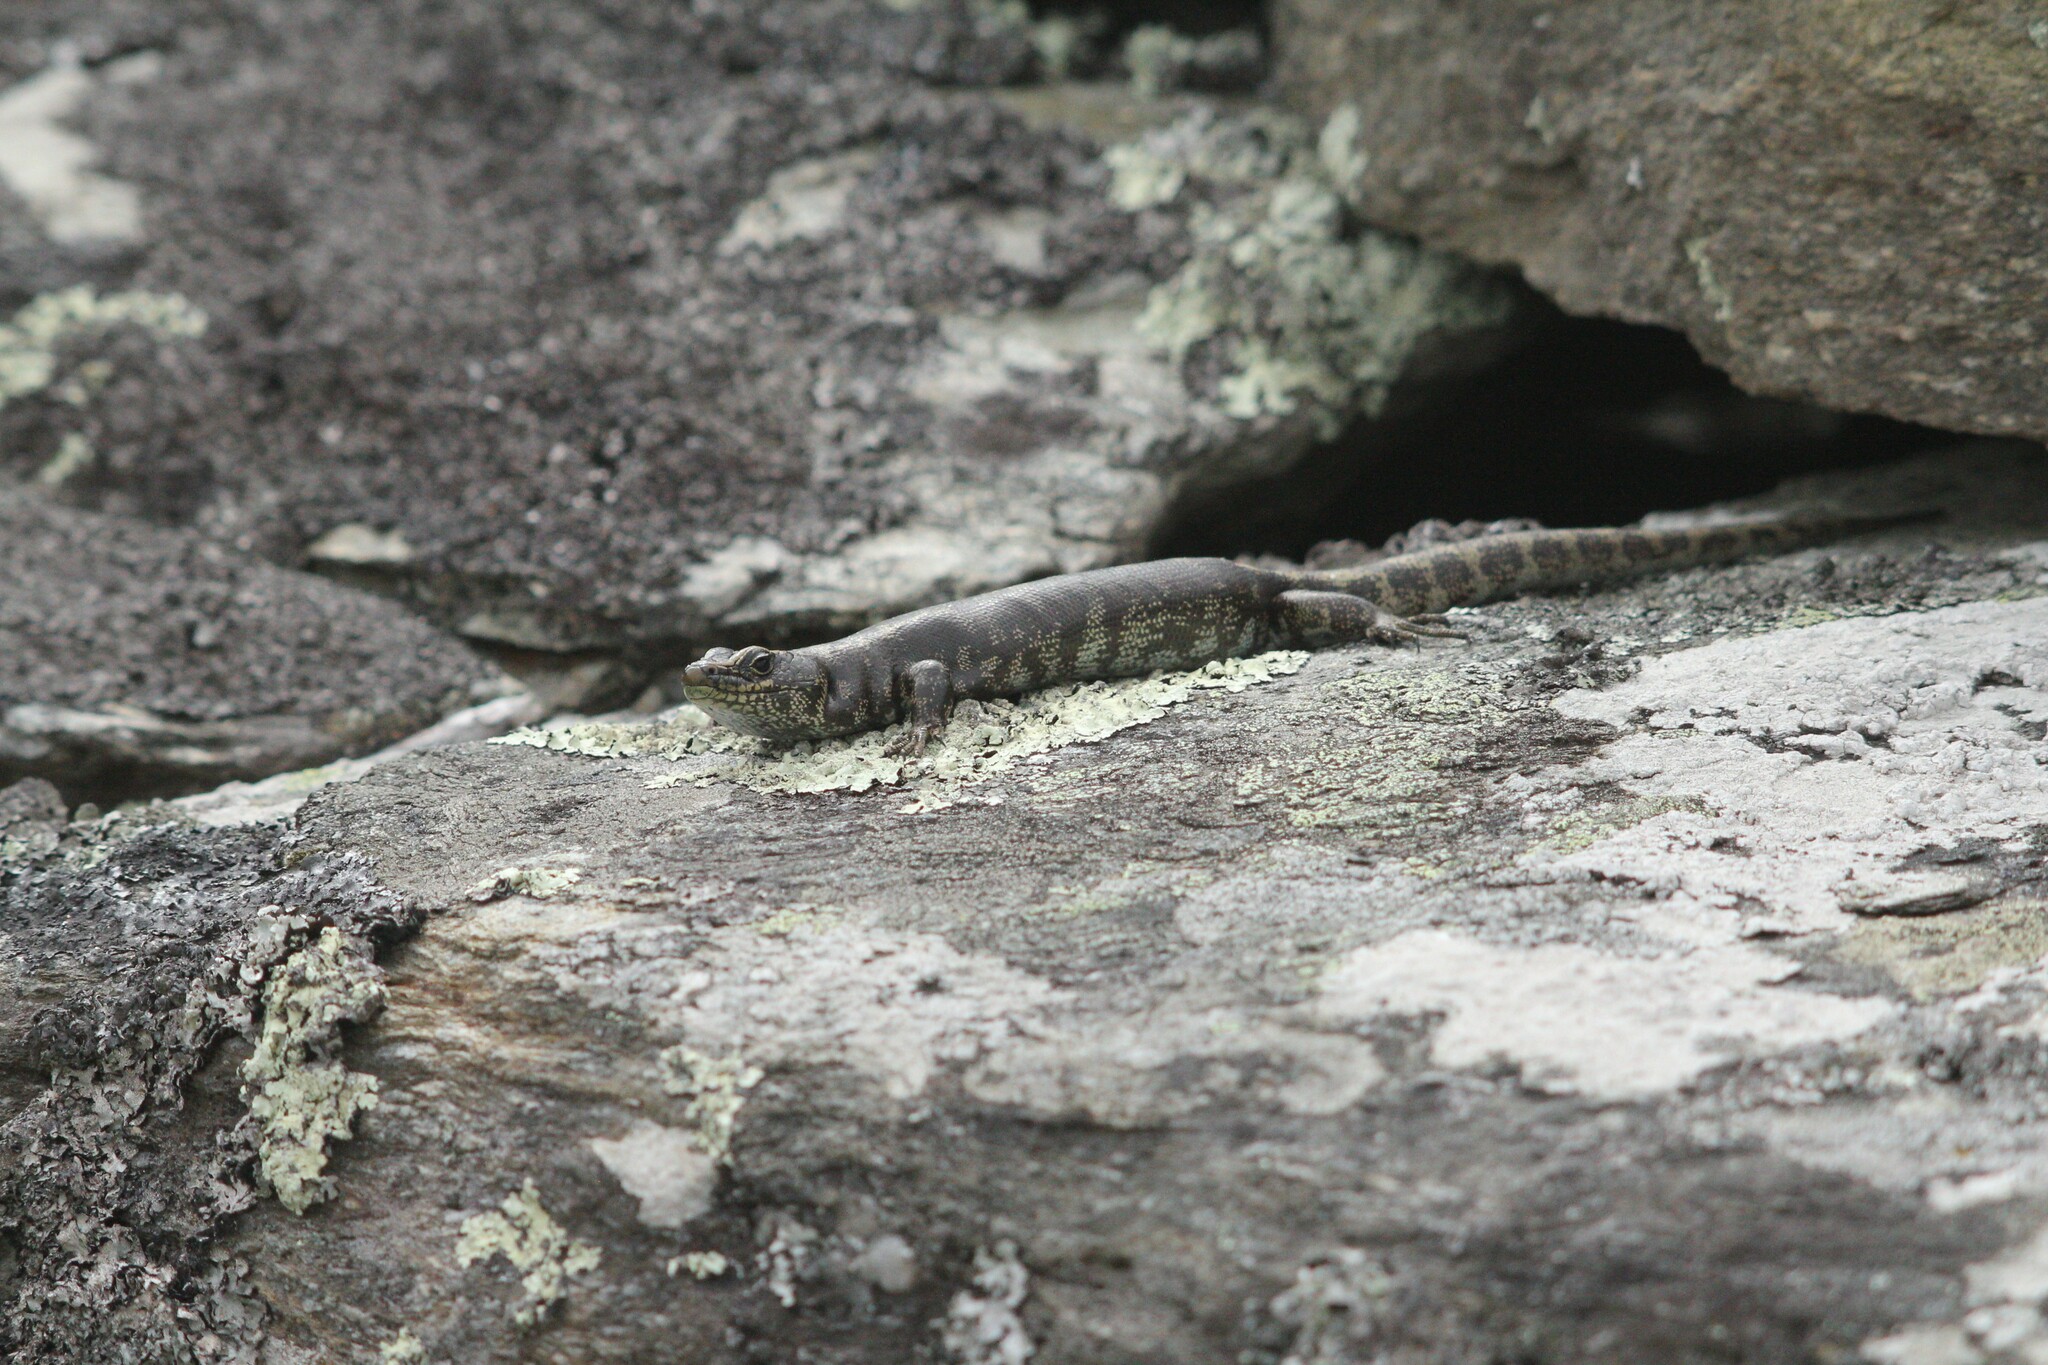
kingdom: Animalia
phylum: Chordata
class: Squamata
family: Scincidae
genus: Oligosoma
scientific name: Oligosoma otagense
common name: Otago skink
